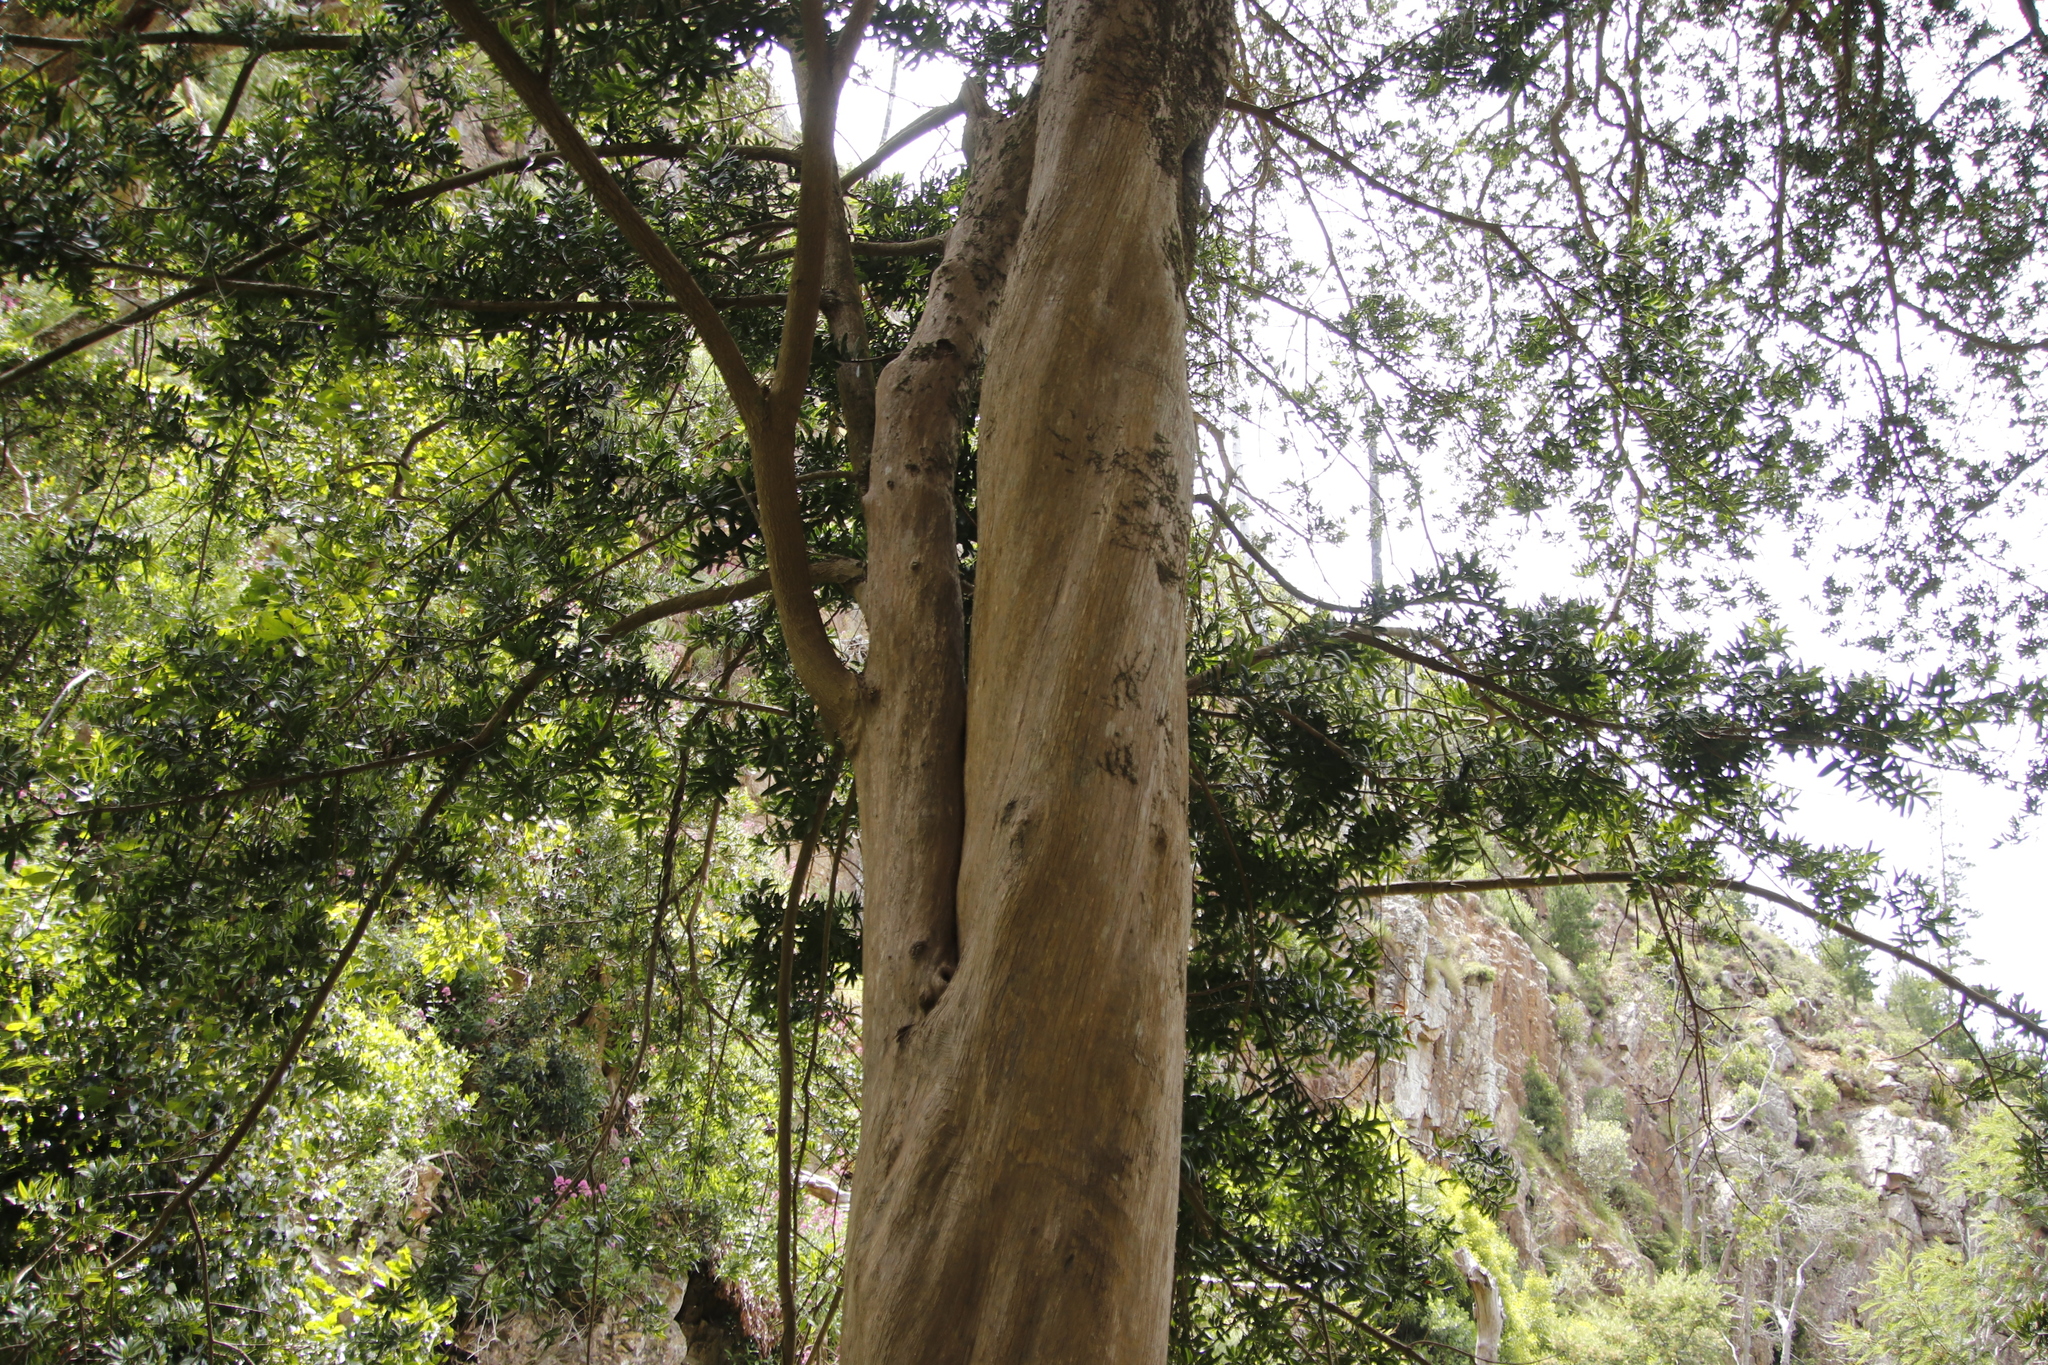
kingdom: Plantae
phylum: Tracheophyta
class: Pinopsida
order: Pinales
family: Podocarpaceae
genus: Podocarpus
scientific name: Podocarpus latifolius
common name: True yellowwood
